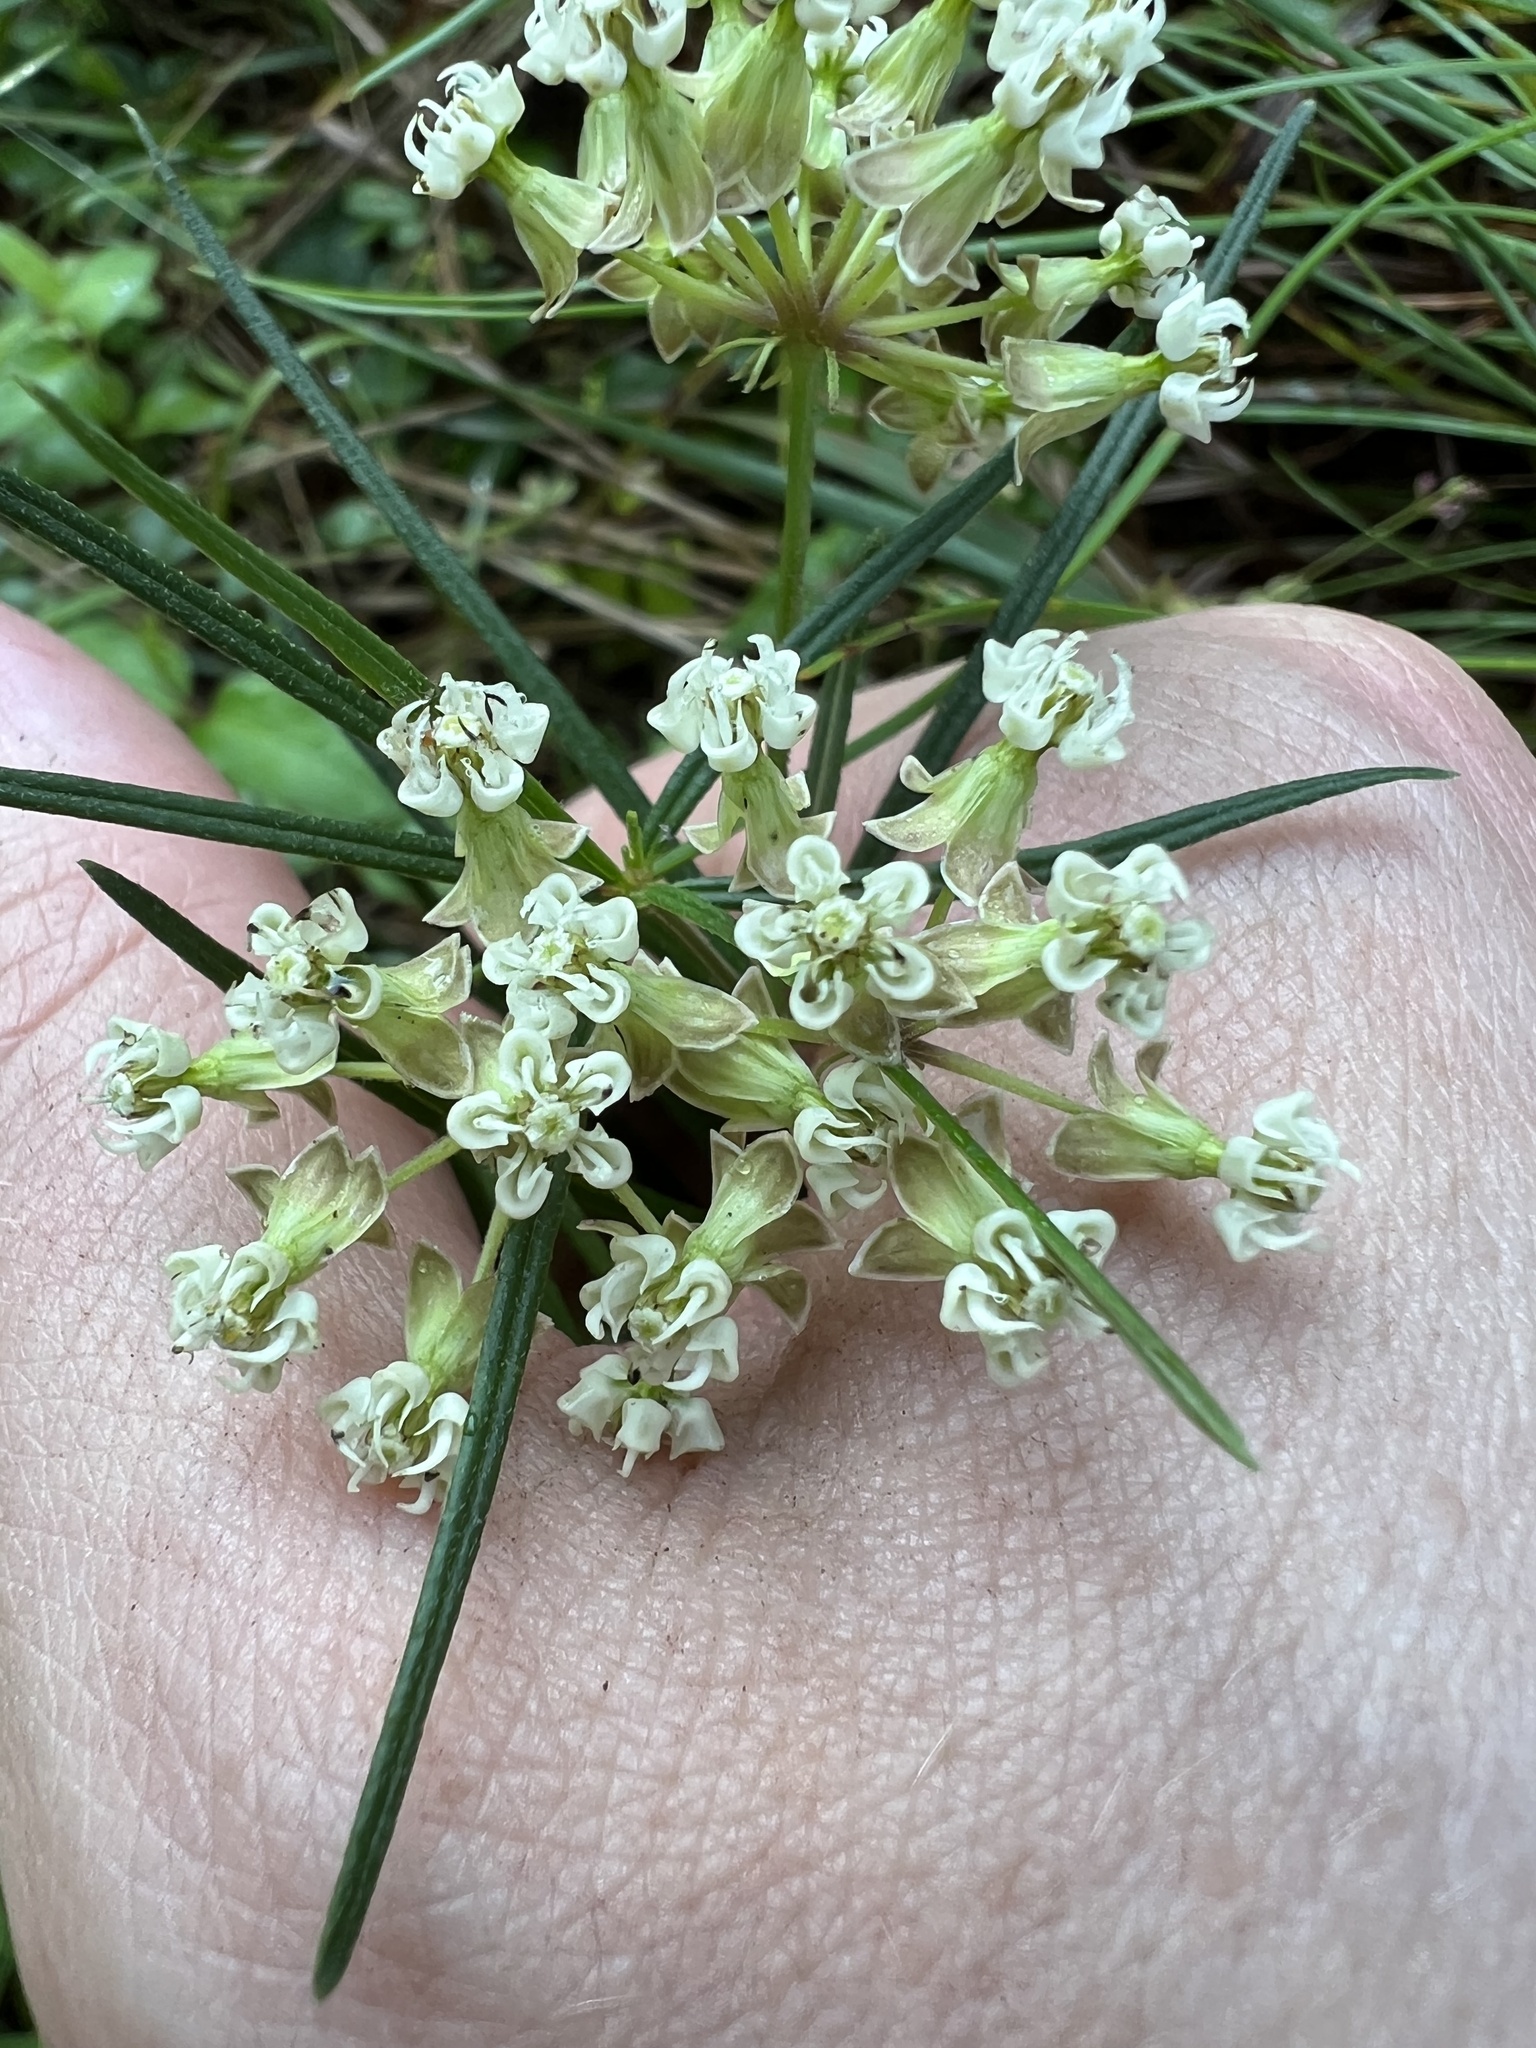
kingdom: Plantae
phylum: Tracheophyta
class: Magnoliopsida
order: Gentianales
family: Apocynaceae
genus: Asclepias
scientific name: Asclepias verticillata
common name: Eastern whorled milkweed
